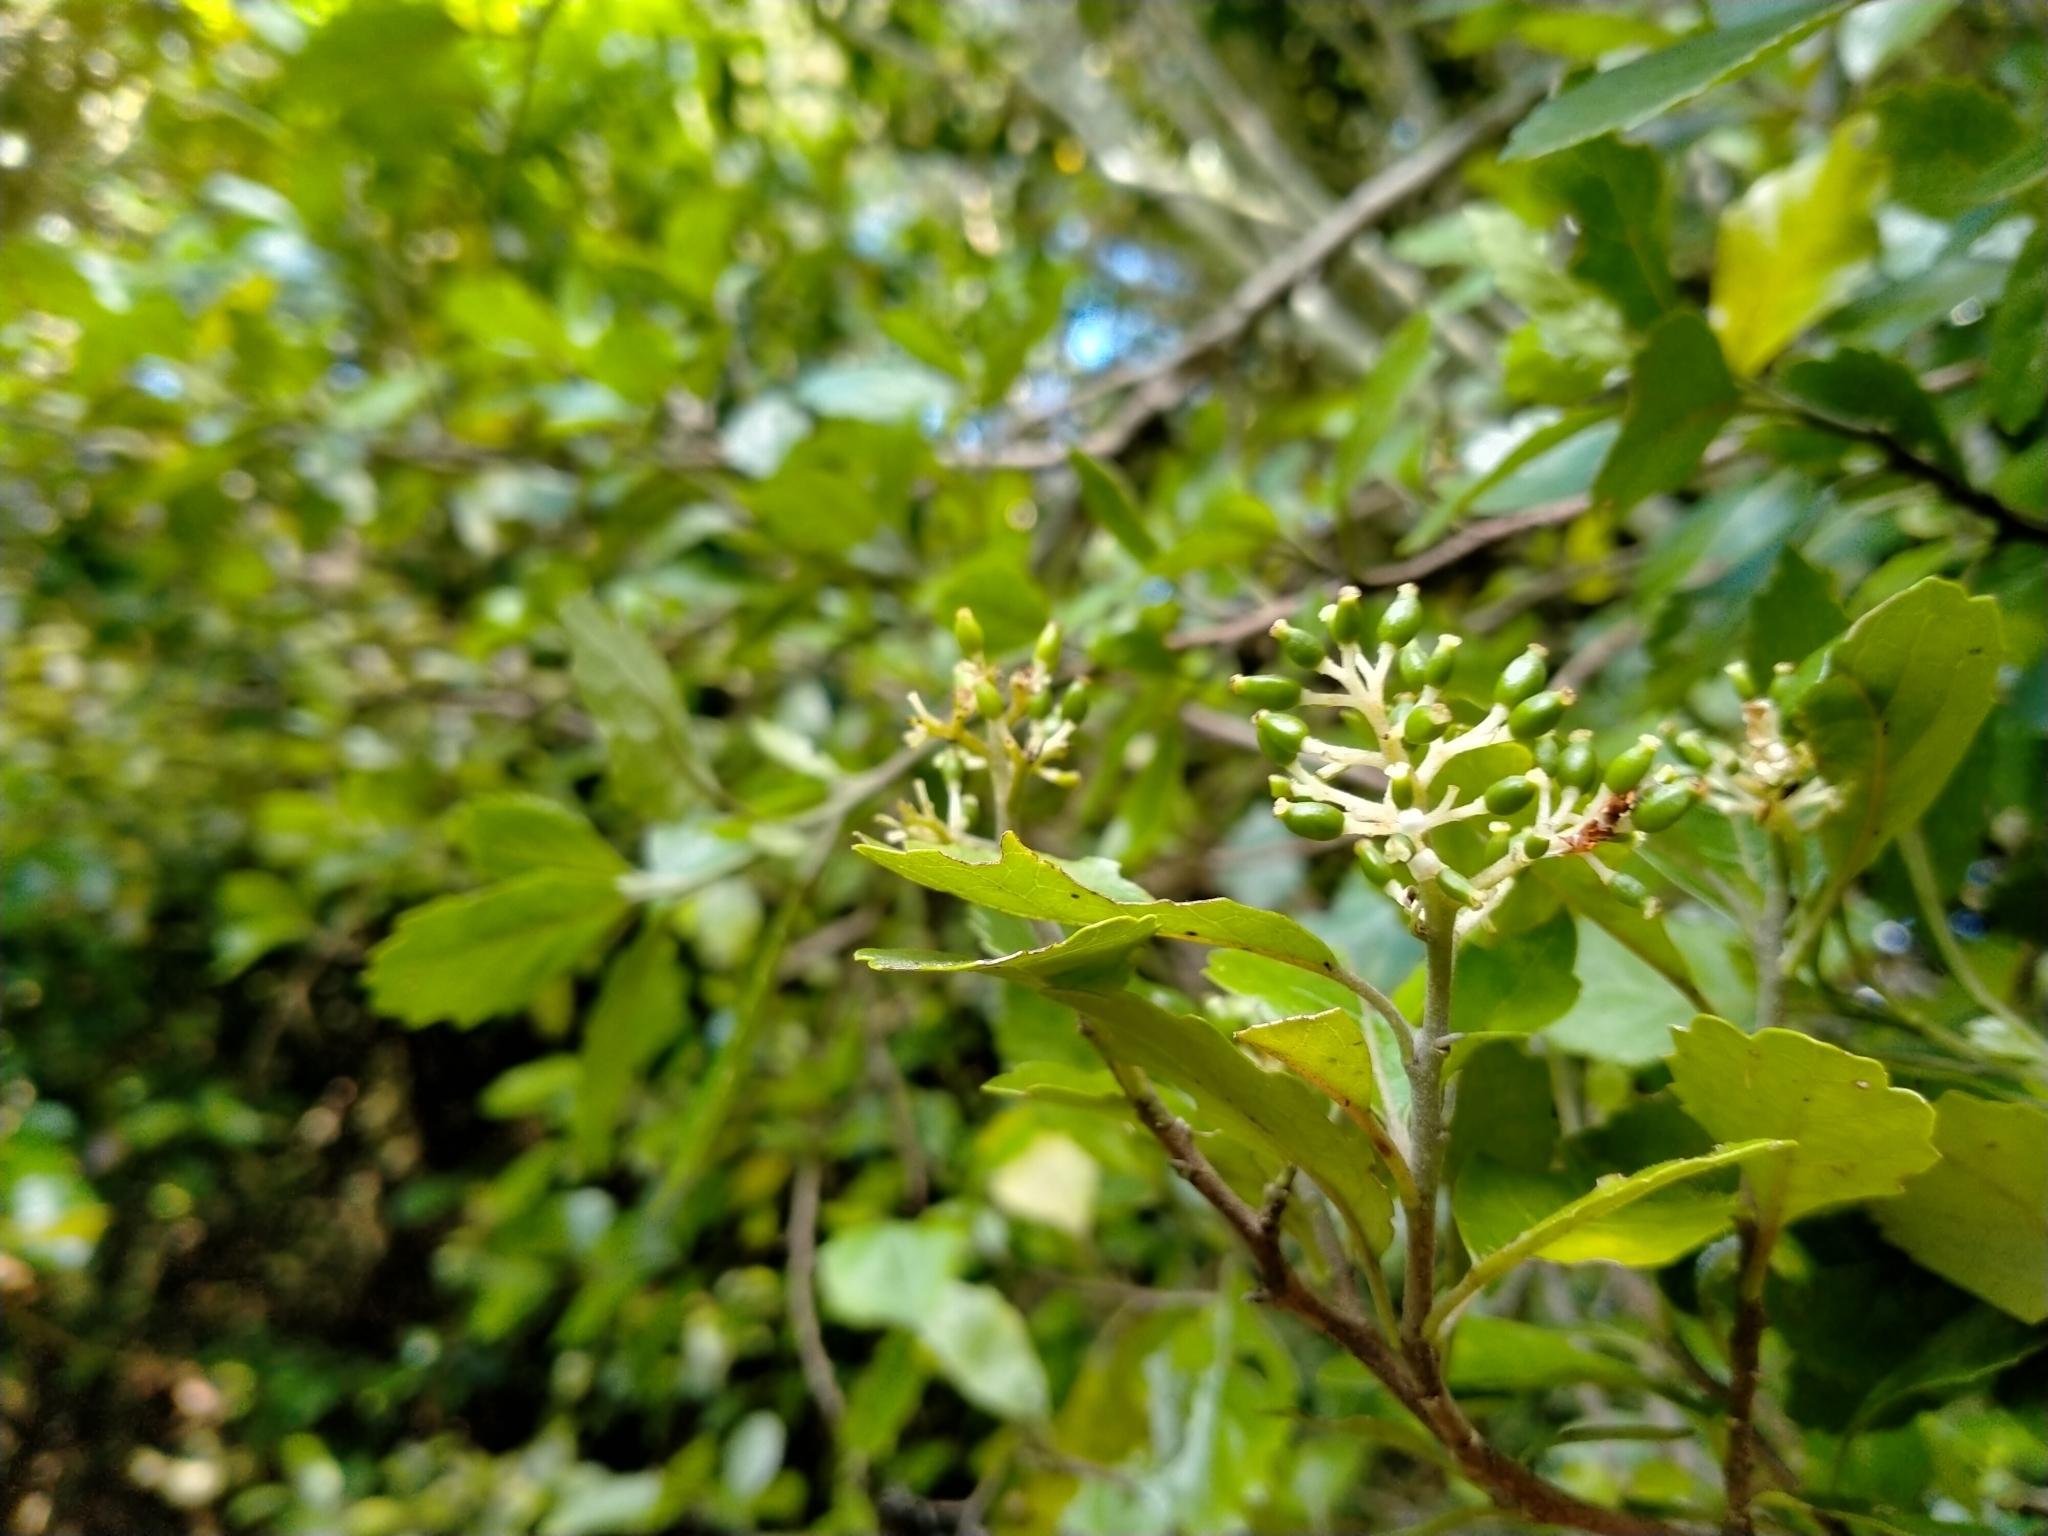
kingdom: Plantae
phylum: Tracheophyta
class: Magnoliopsida
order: Apiales
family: Pennantiaceae
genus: Pennantia
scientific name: Pennantia corymbosa
